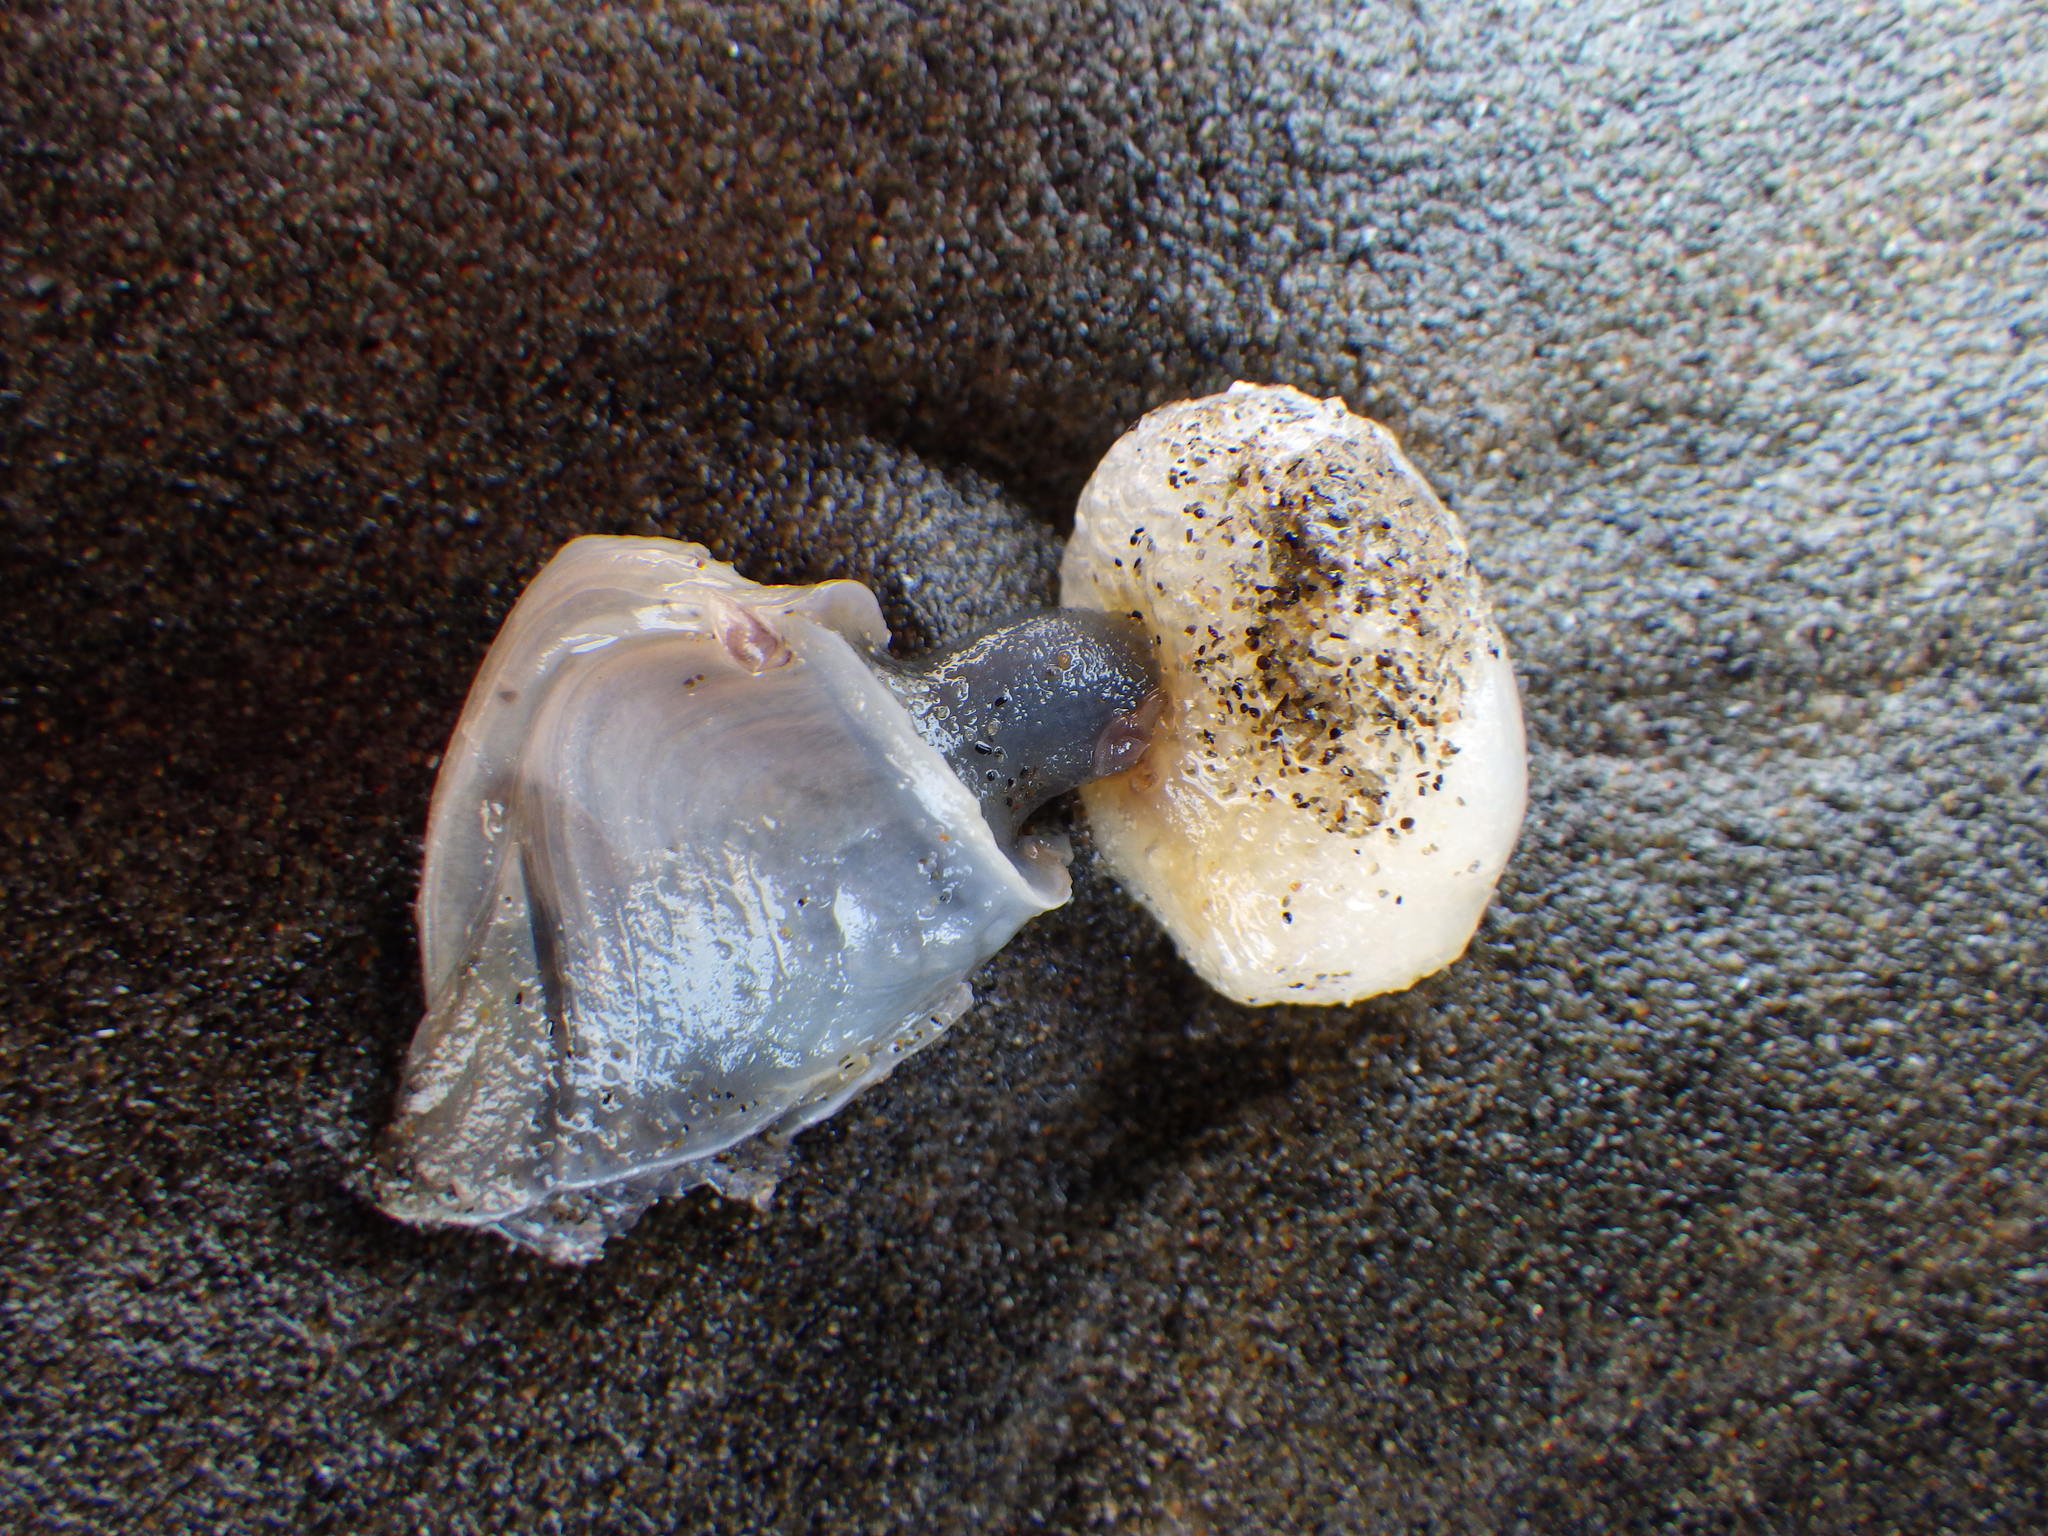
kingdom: Animalia
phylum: Arthropoda
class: Maxillopoda
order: Pedunculata
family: Lepadidae
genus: Dosima
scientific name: Dosima fascicularis
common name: Buoy barnacle
